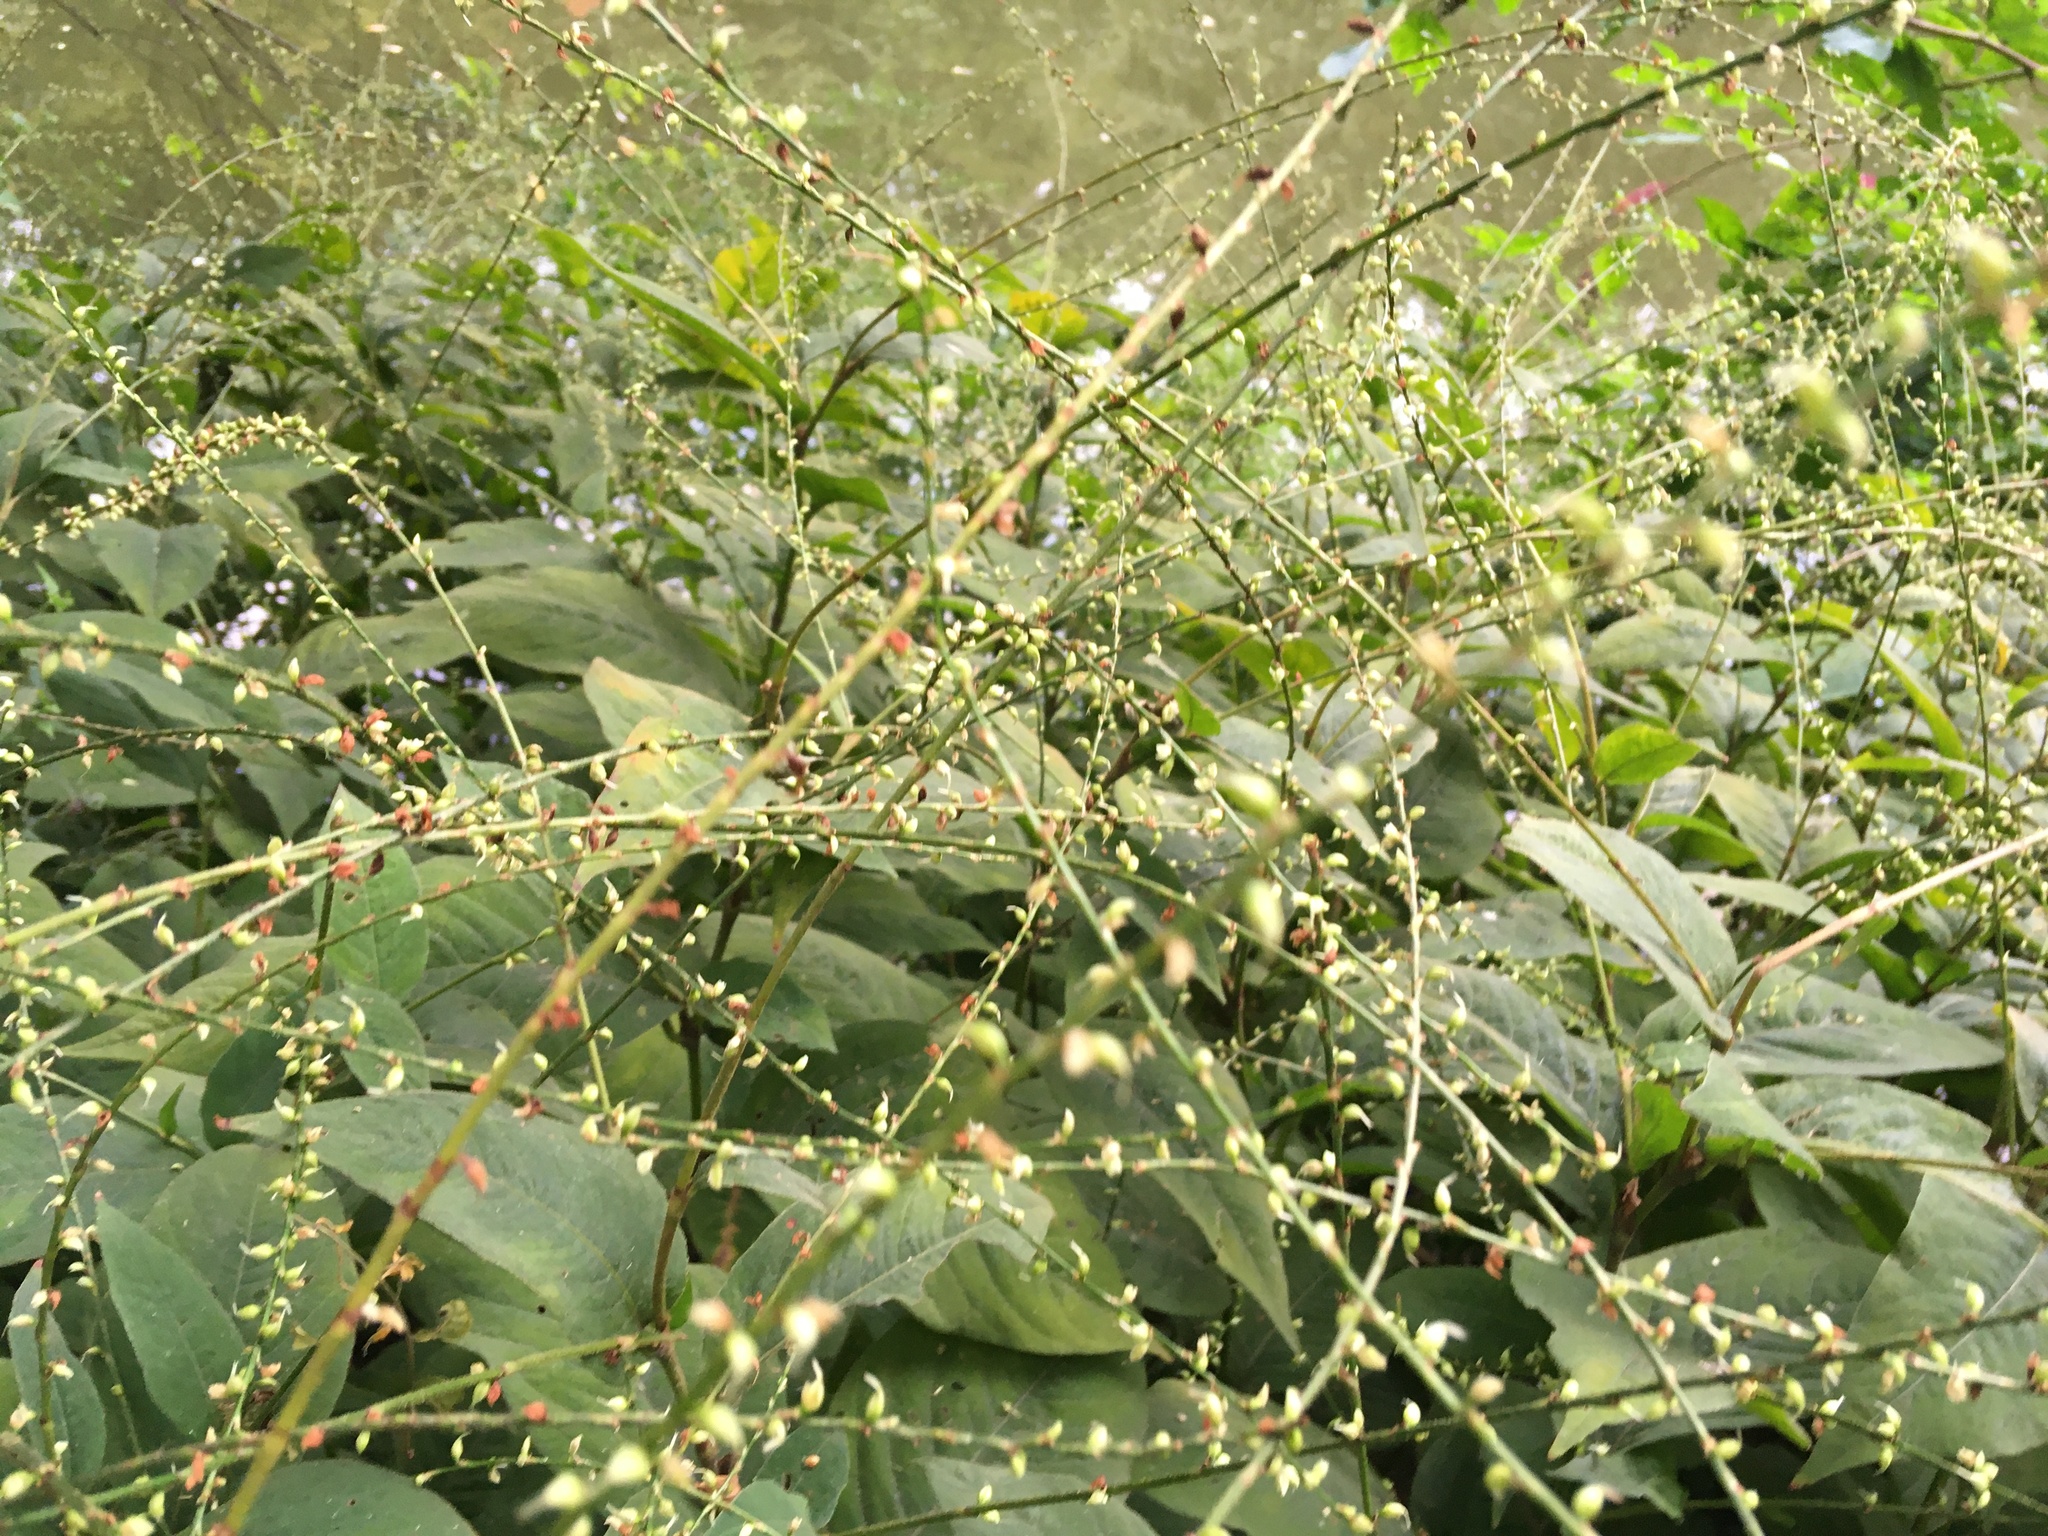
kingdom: Plantae
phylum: Tracheophyta
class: Magnoliopsida
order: Caryophyllales
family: Polygonaceae
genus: Persicaria
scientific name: Persicaria virginiana
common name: Jumpseed
